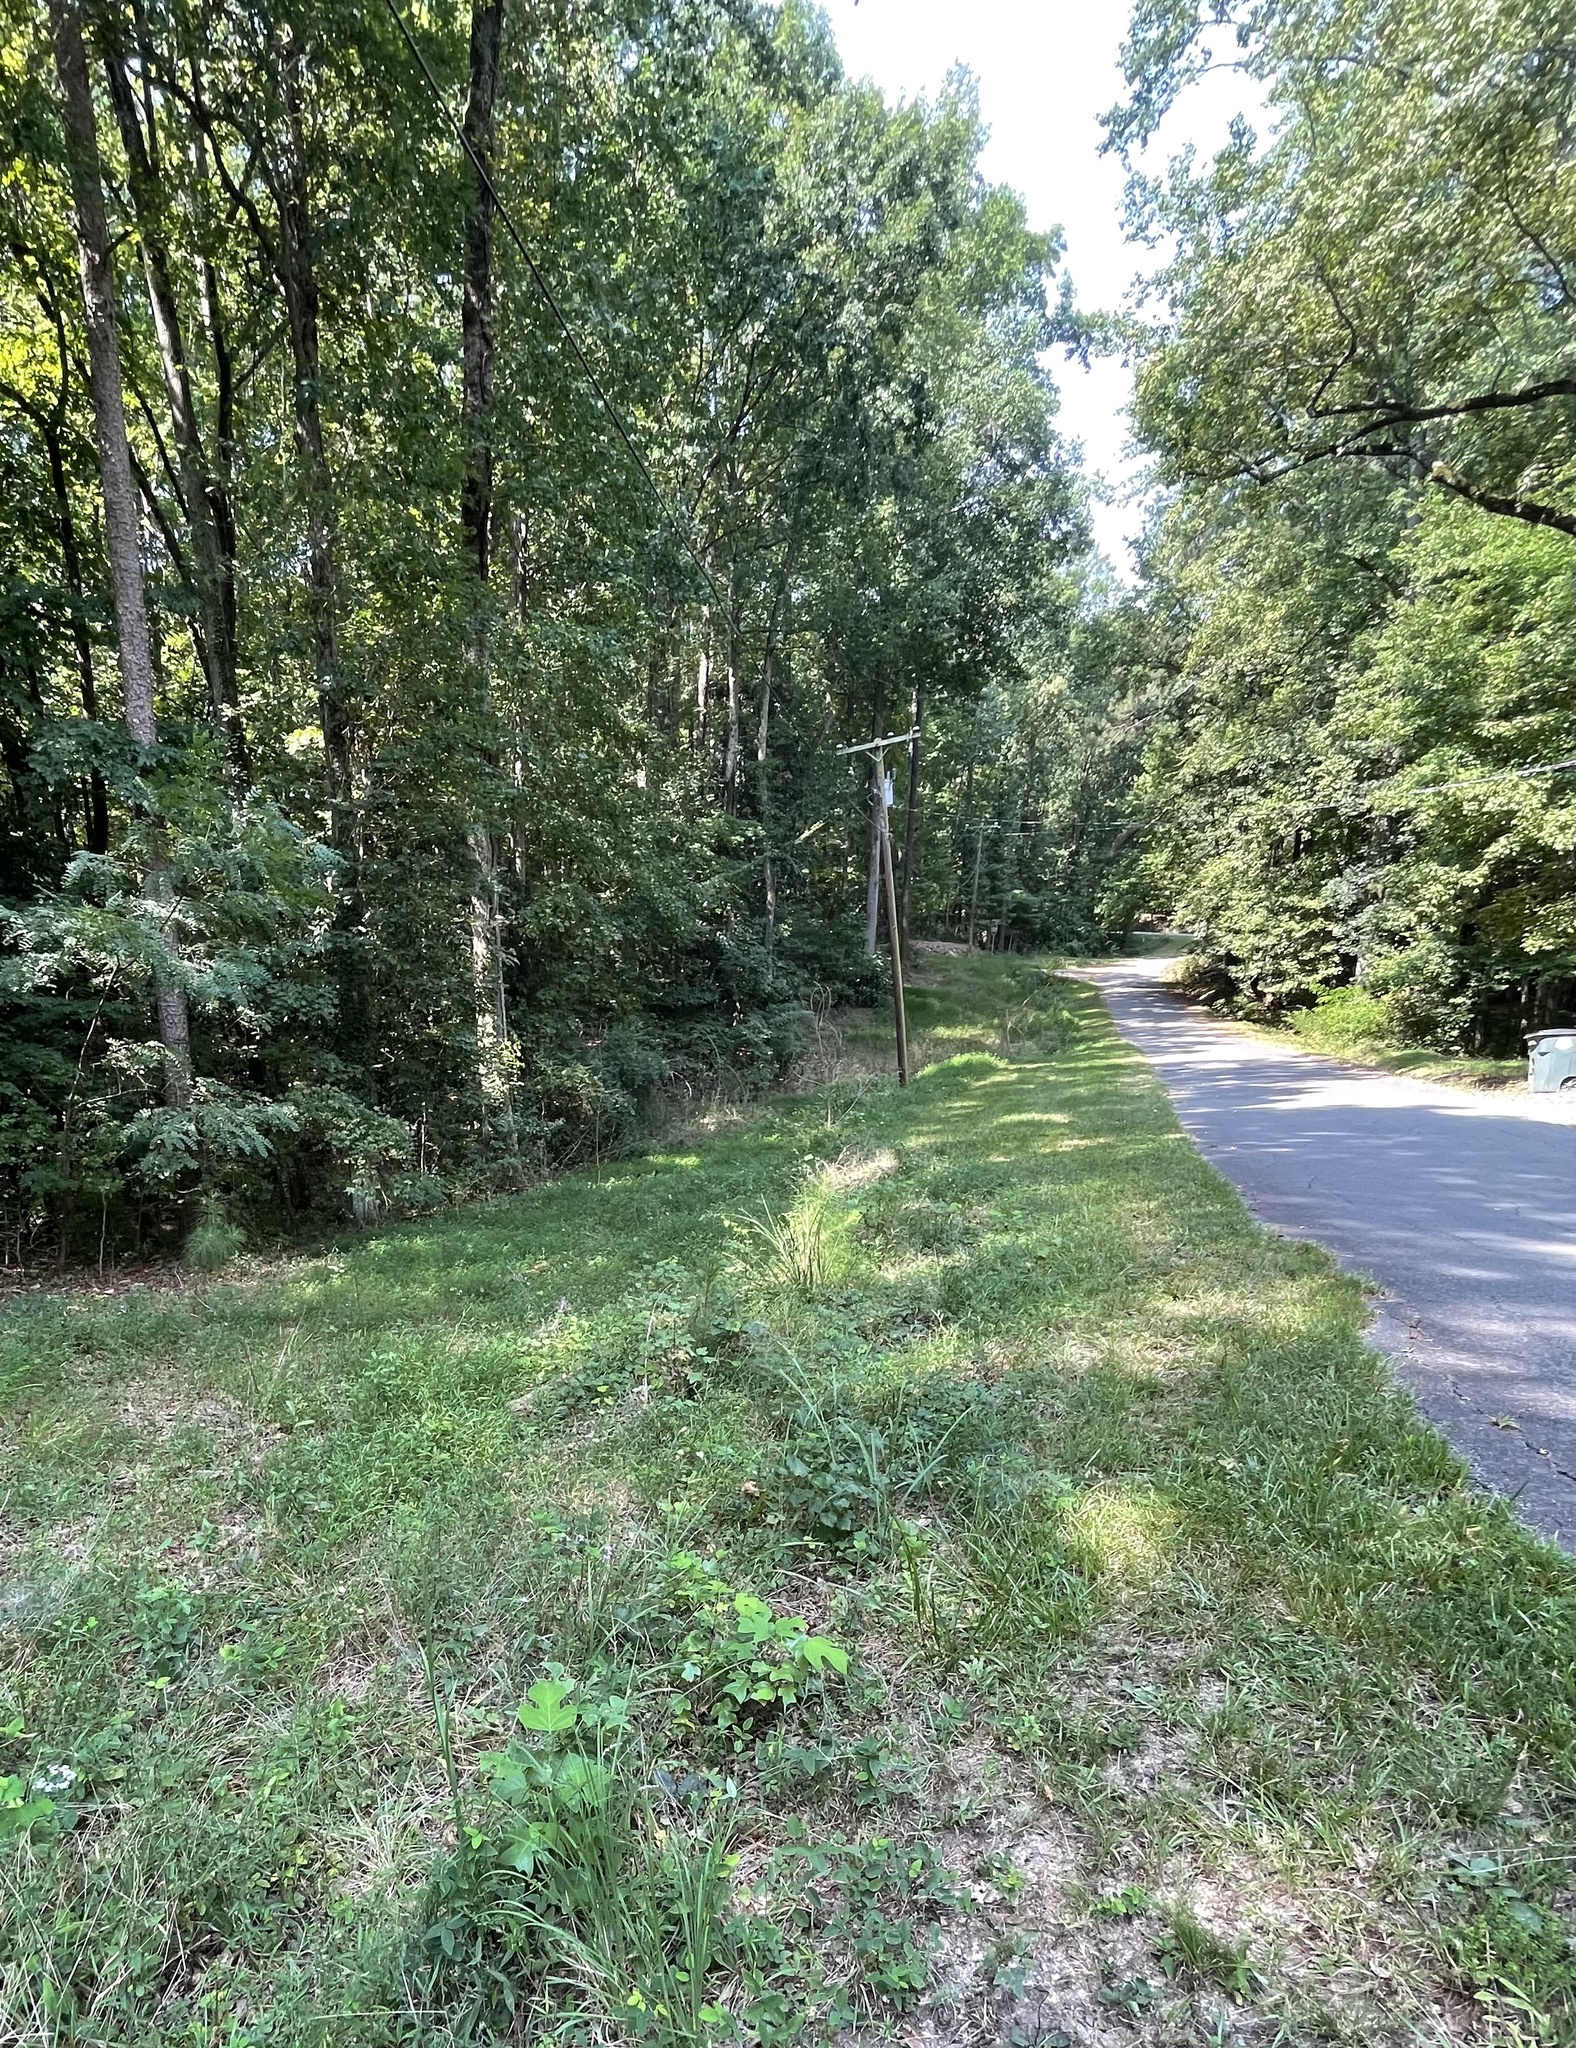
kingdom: Plantae
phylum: Tracheophyta
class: Magnoliopsida
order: Asterales
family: Asteraceae
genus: Eurybia
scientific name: Eurybia mirabilis
